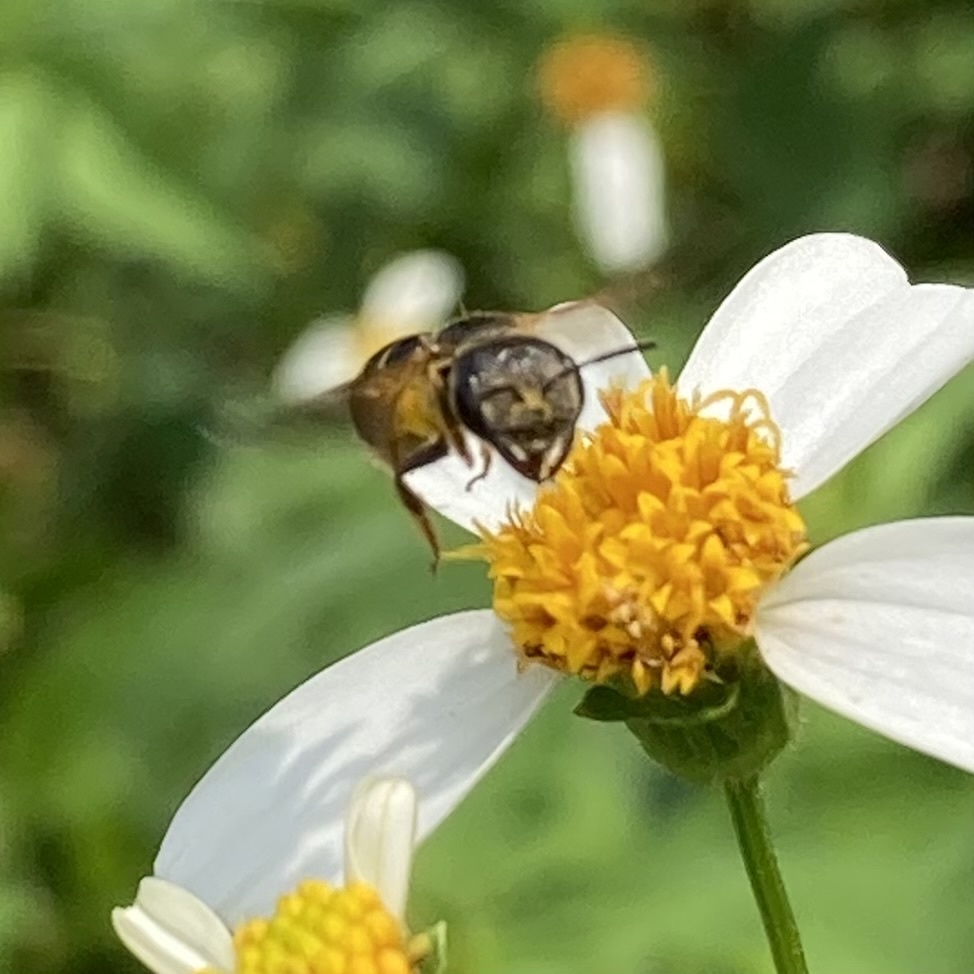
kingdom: Animalia
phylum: Arthropoda
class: Insecta
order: Hymenoptera
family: Halictidae
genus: Halictus
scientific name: Halictus poeyi
